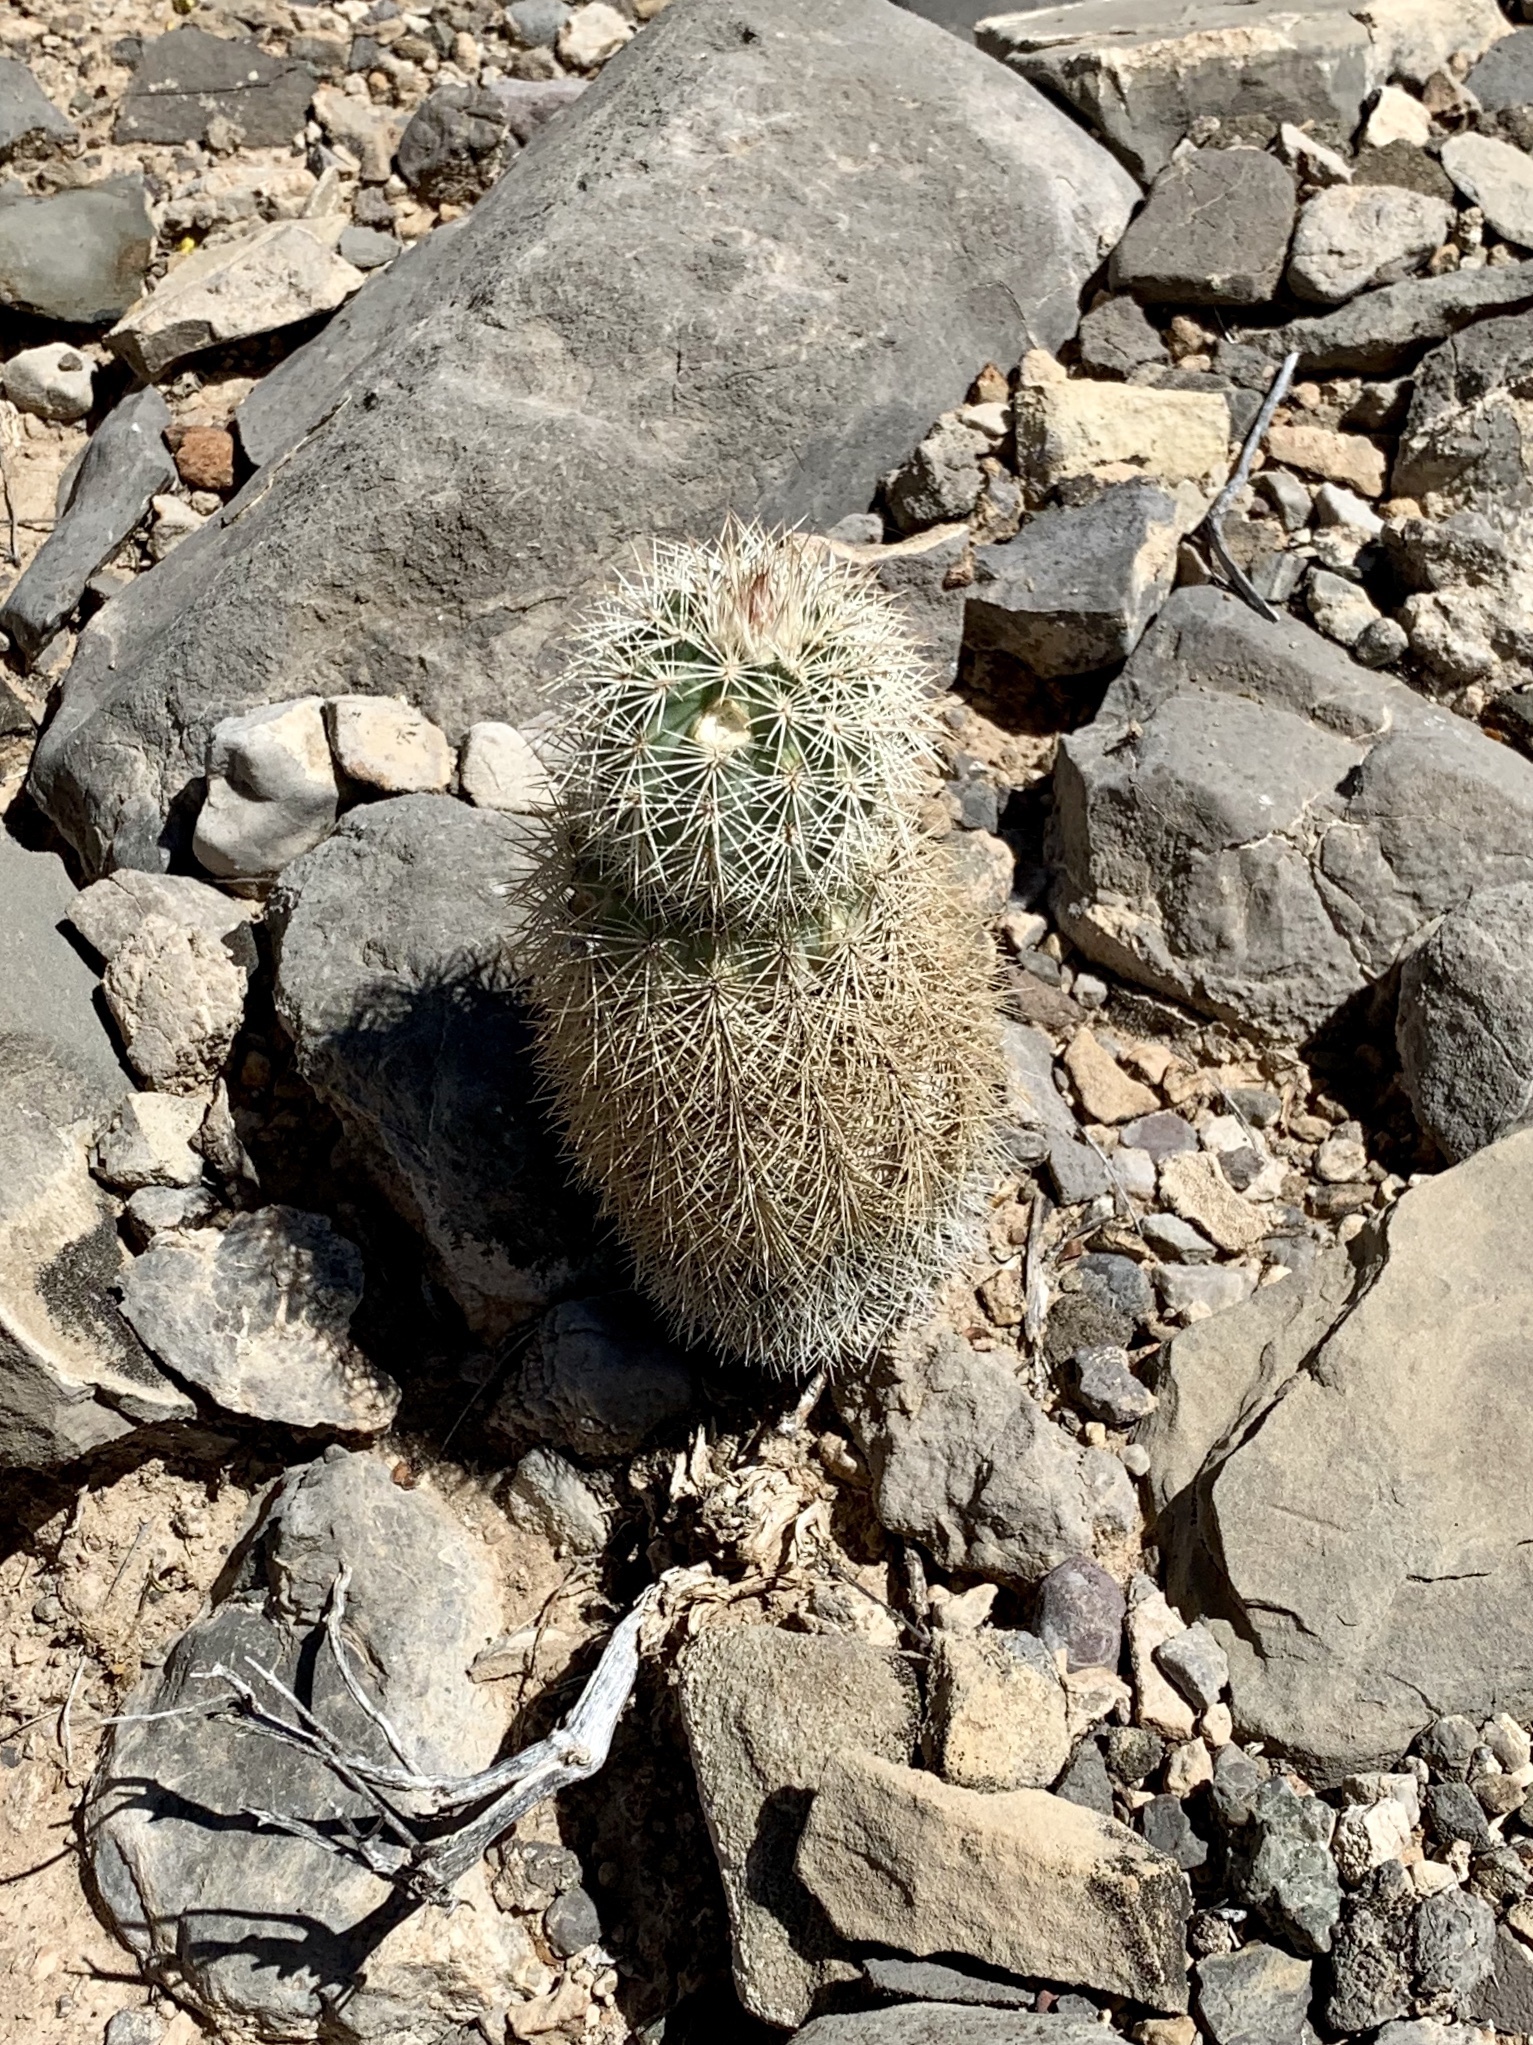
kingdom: Plantae
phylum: Tracheophyta
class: Magnoliopsida
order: Caryophyllales
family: Cactaceae
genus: Echinocereus
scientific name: Echinocereus dasyacanthus
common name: Spiny hedgehog cactus
